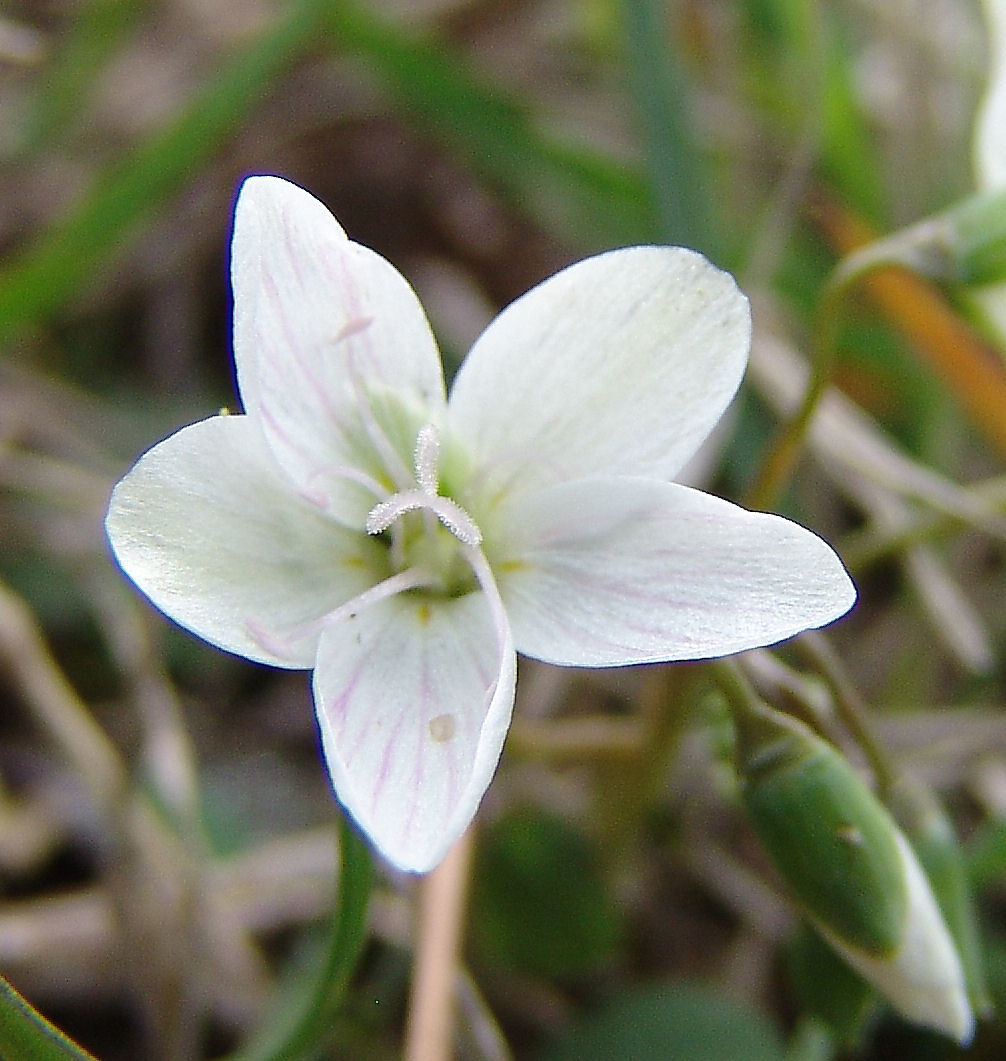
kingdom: Plantae
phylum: Tracheophyta
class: Magnoliopsida
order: Caryophyllales
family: Montiaceae
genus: Claytonia
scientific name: Claytonia virginica
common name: Virginia springbeauty
